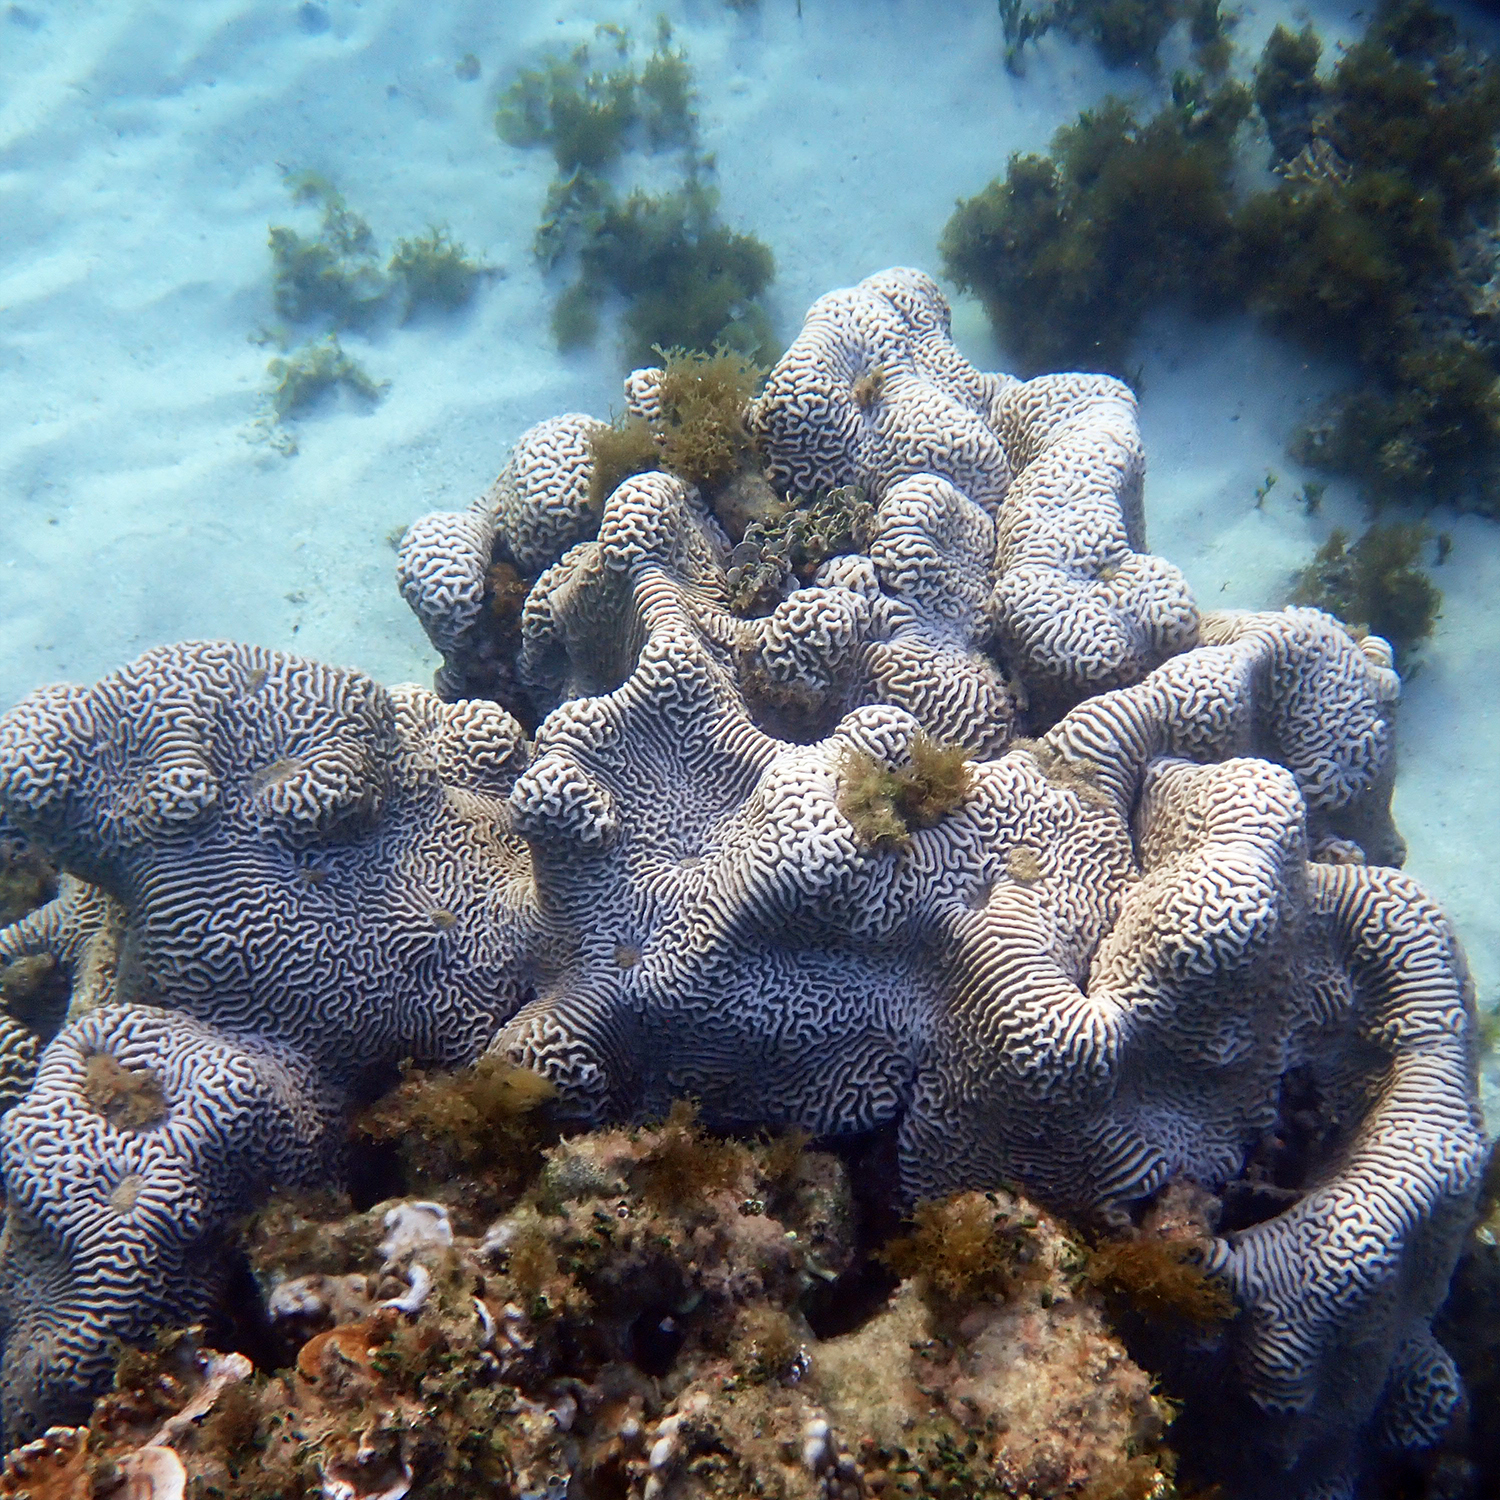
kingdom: Animalia
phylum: Cnidaria
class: Anthozoa
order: Scleractinia
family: Merulinidae
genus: Paragoniastrea
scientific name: Paragoniastrea australensis
